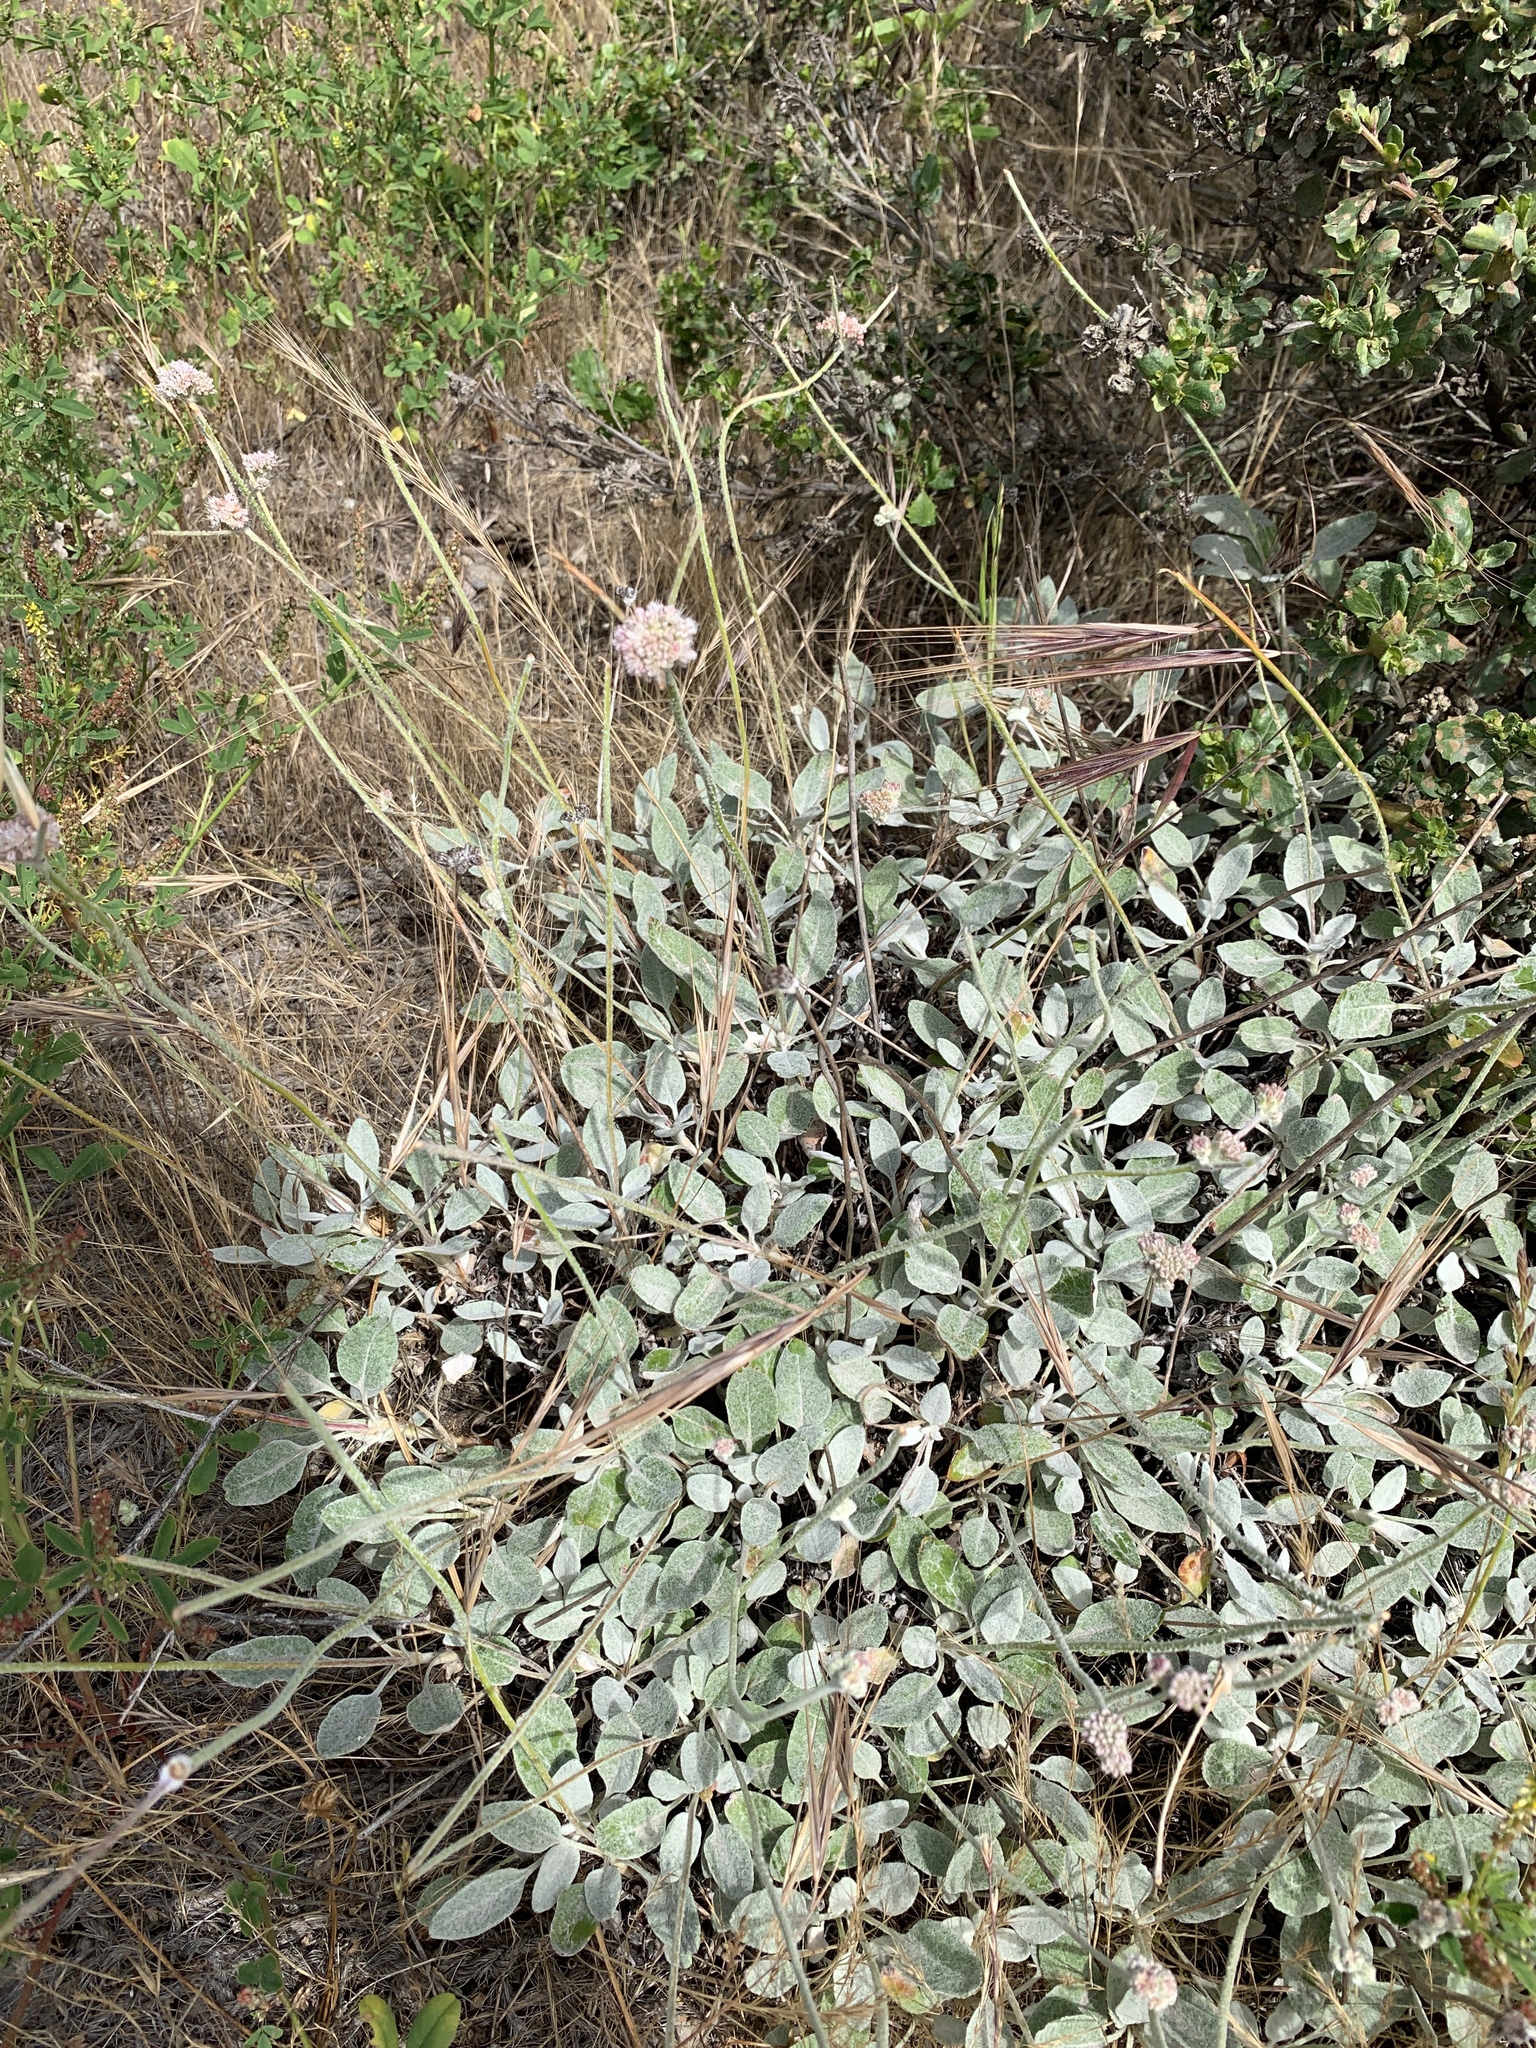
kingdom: Plantae
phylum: Tracheophyta
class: Magnoliopsida
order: Caryophyllales
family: Polygonaceae
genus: Eriogonum
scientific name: Eriogonum latifolium
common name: Seaside wild buckwheat
